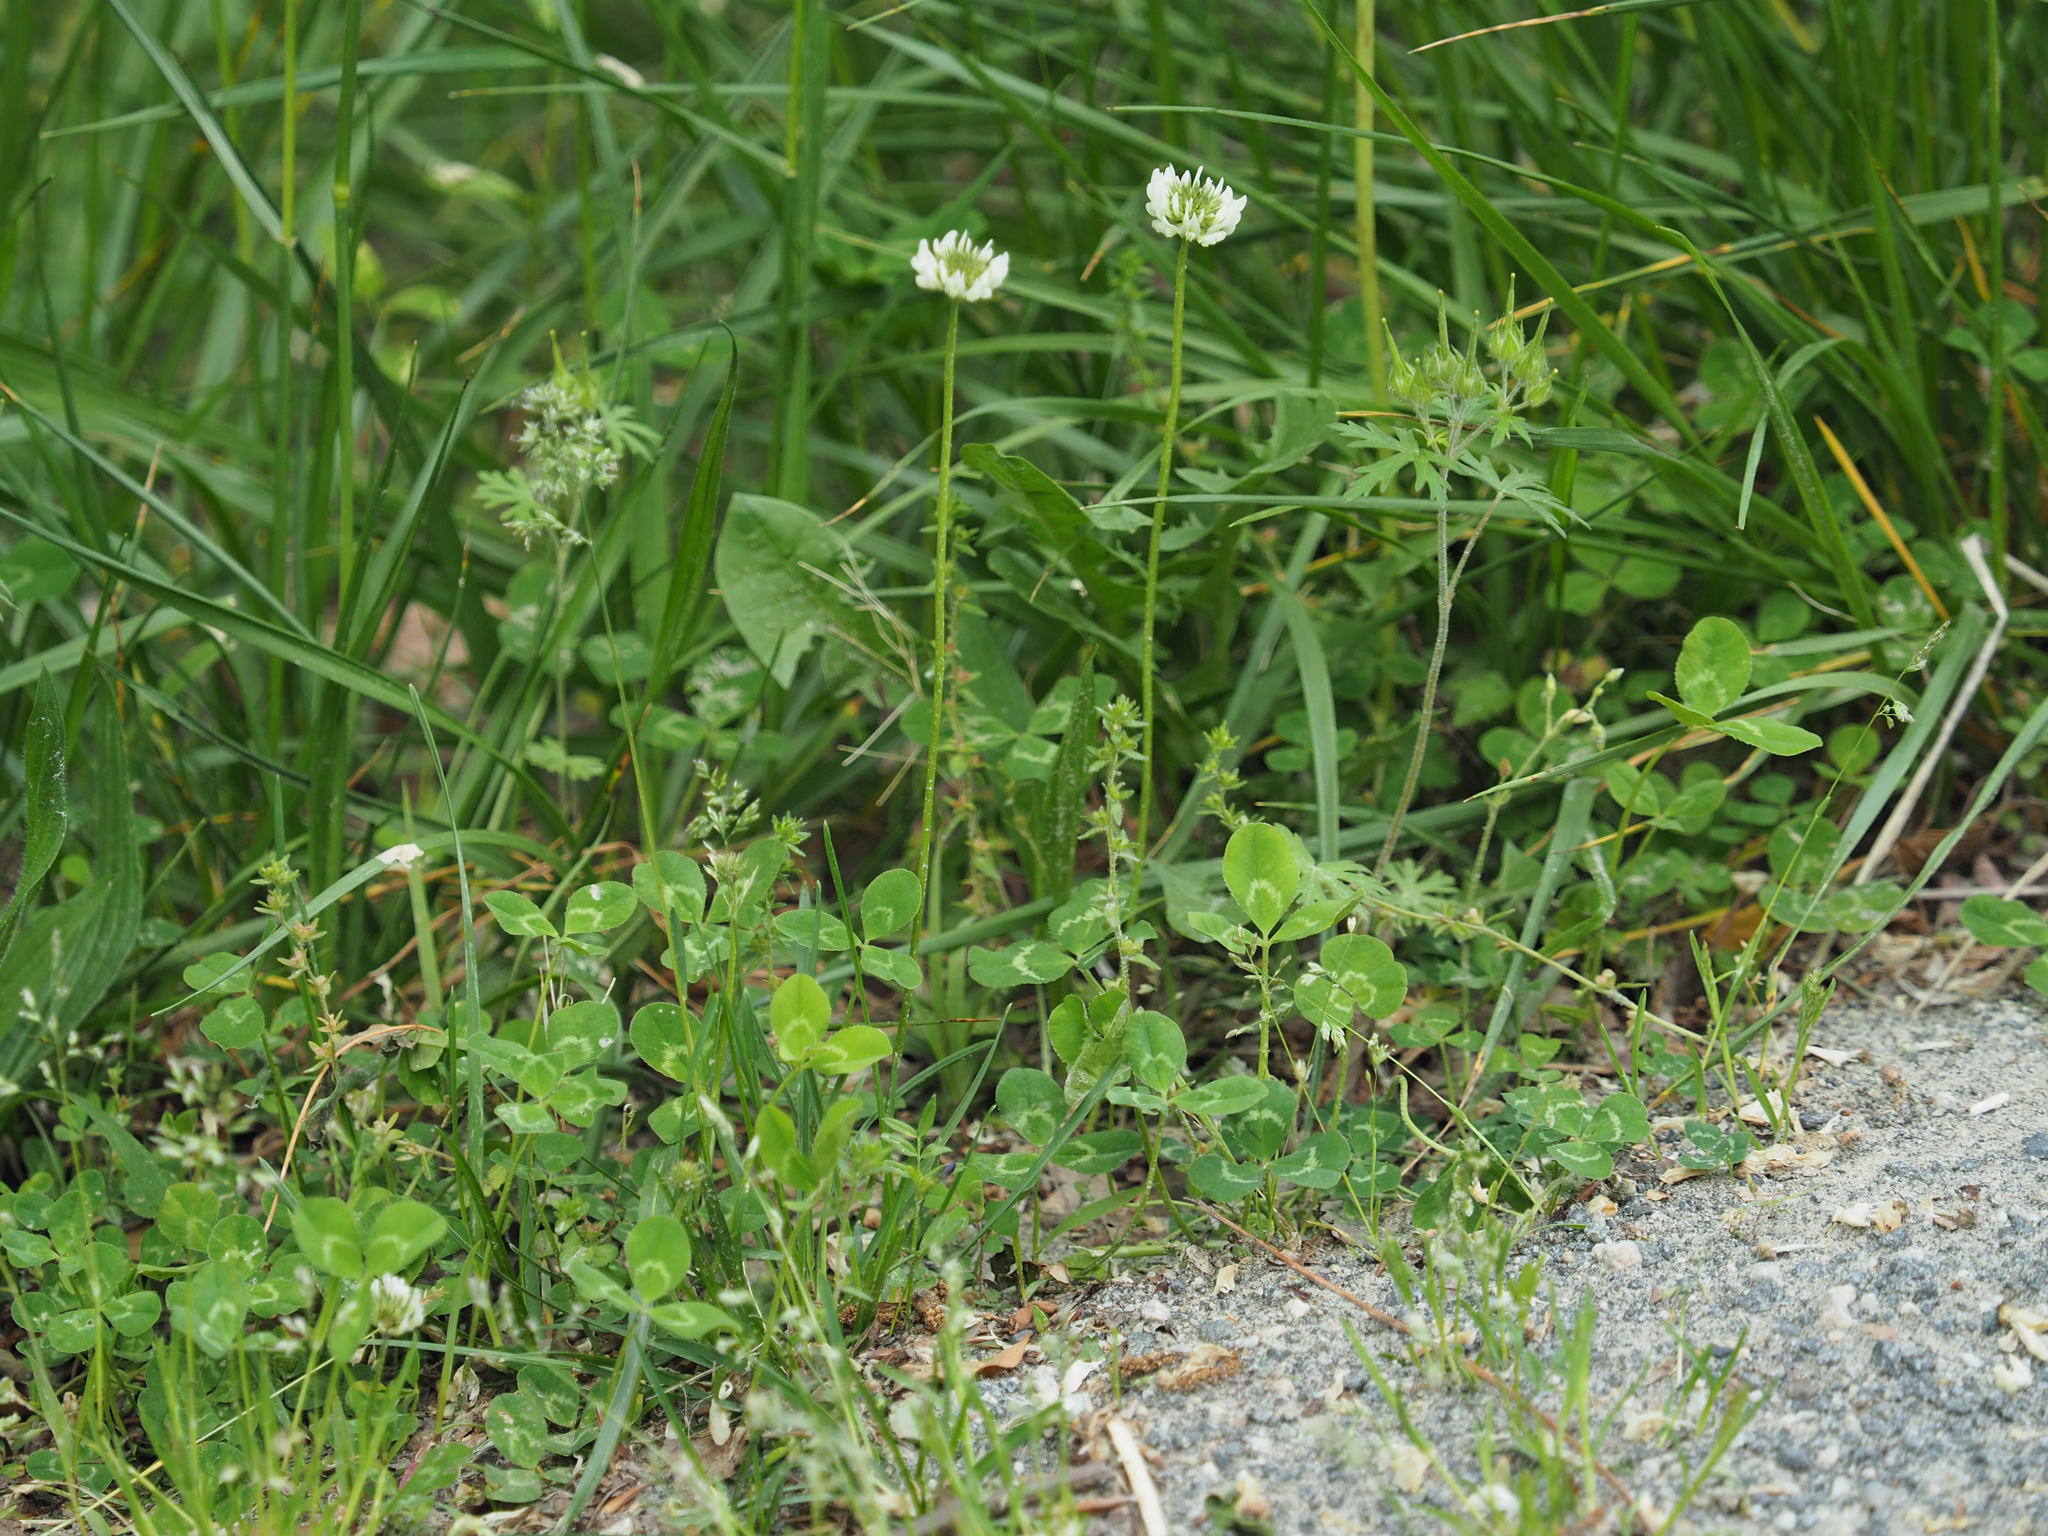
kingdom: Plantae
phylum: Tracheophyta
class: Magnoliopsida
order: Fabales
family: Fabaceae
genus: Trifolium
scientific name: Trifolium repens
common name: White clover
